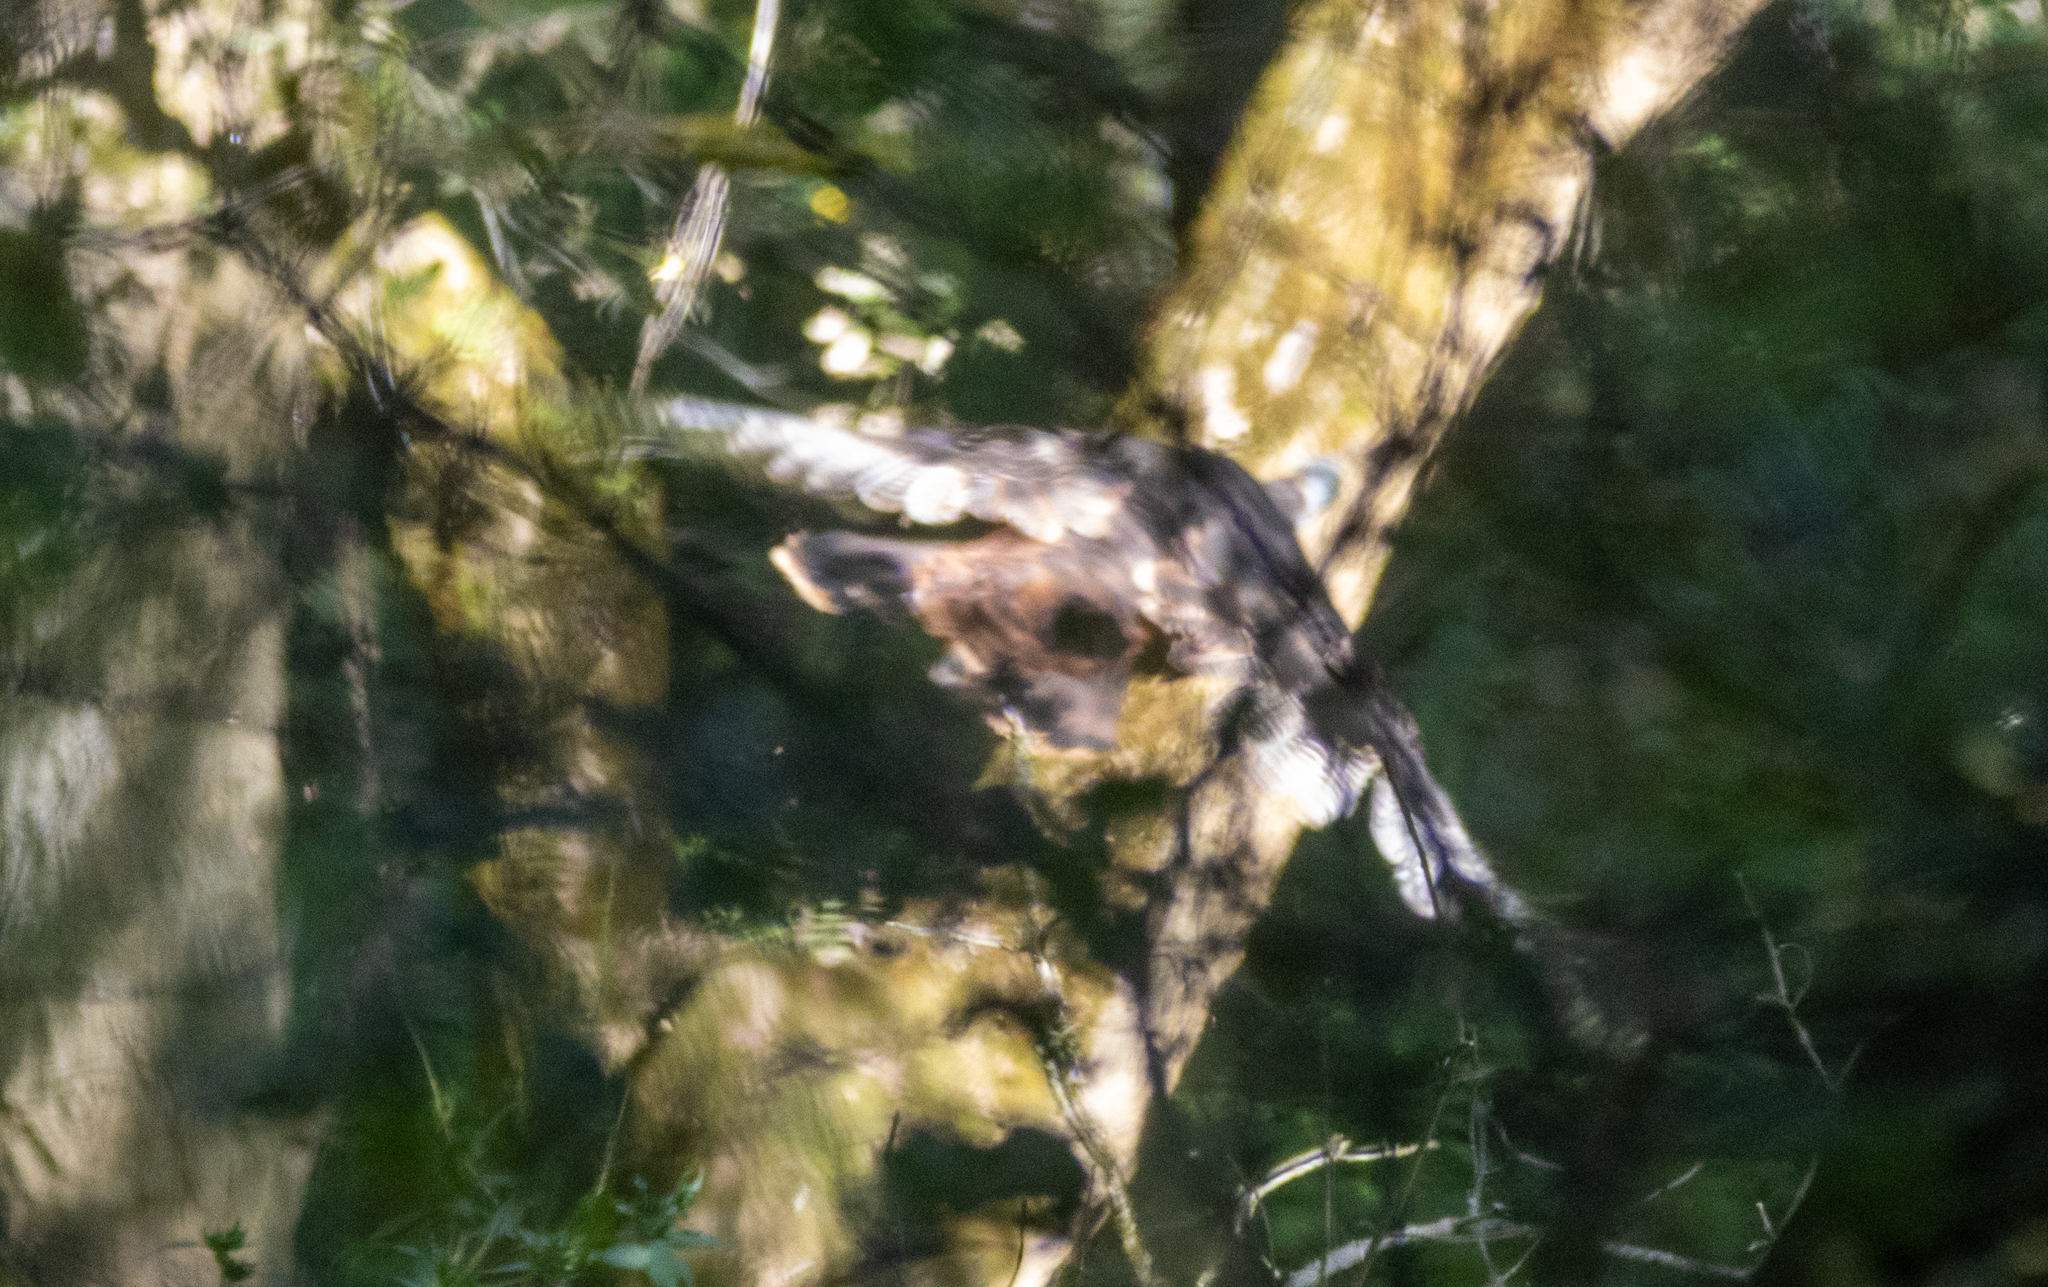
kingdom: Animalia
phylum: Chordata
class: Aves
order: Galliformes
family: Phasianidae
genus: Meleagris
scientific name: Meleagris gallopavo
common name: Wild turkey
